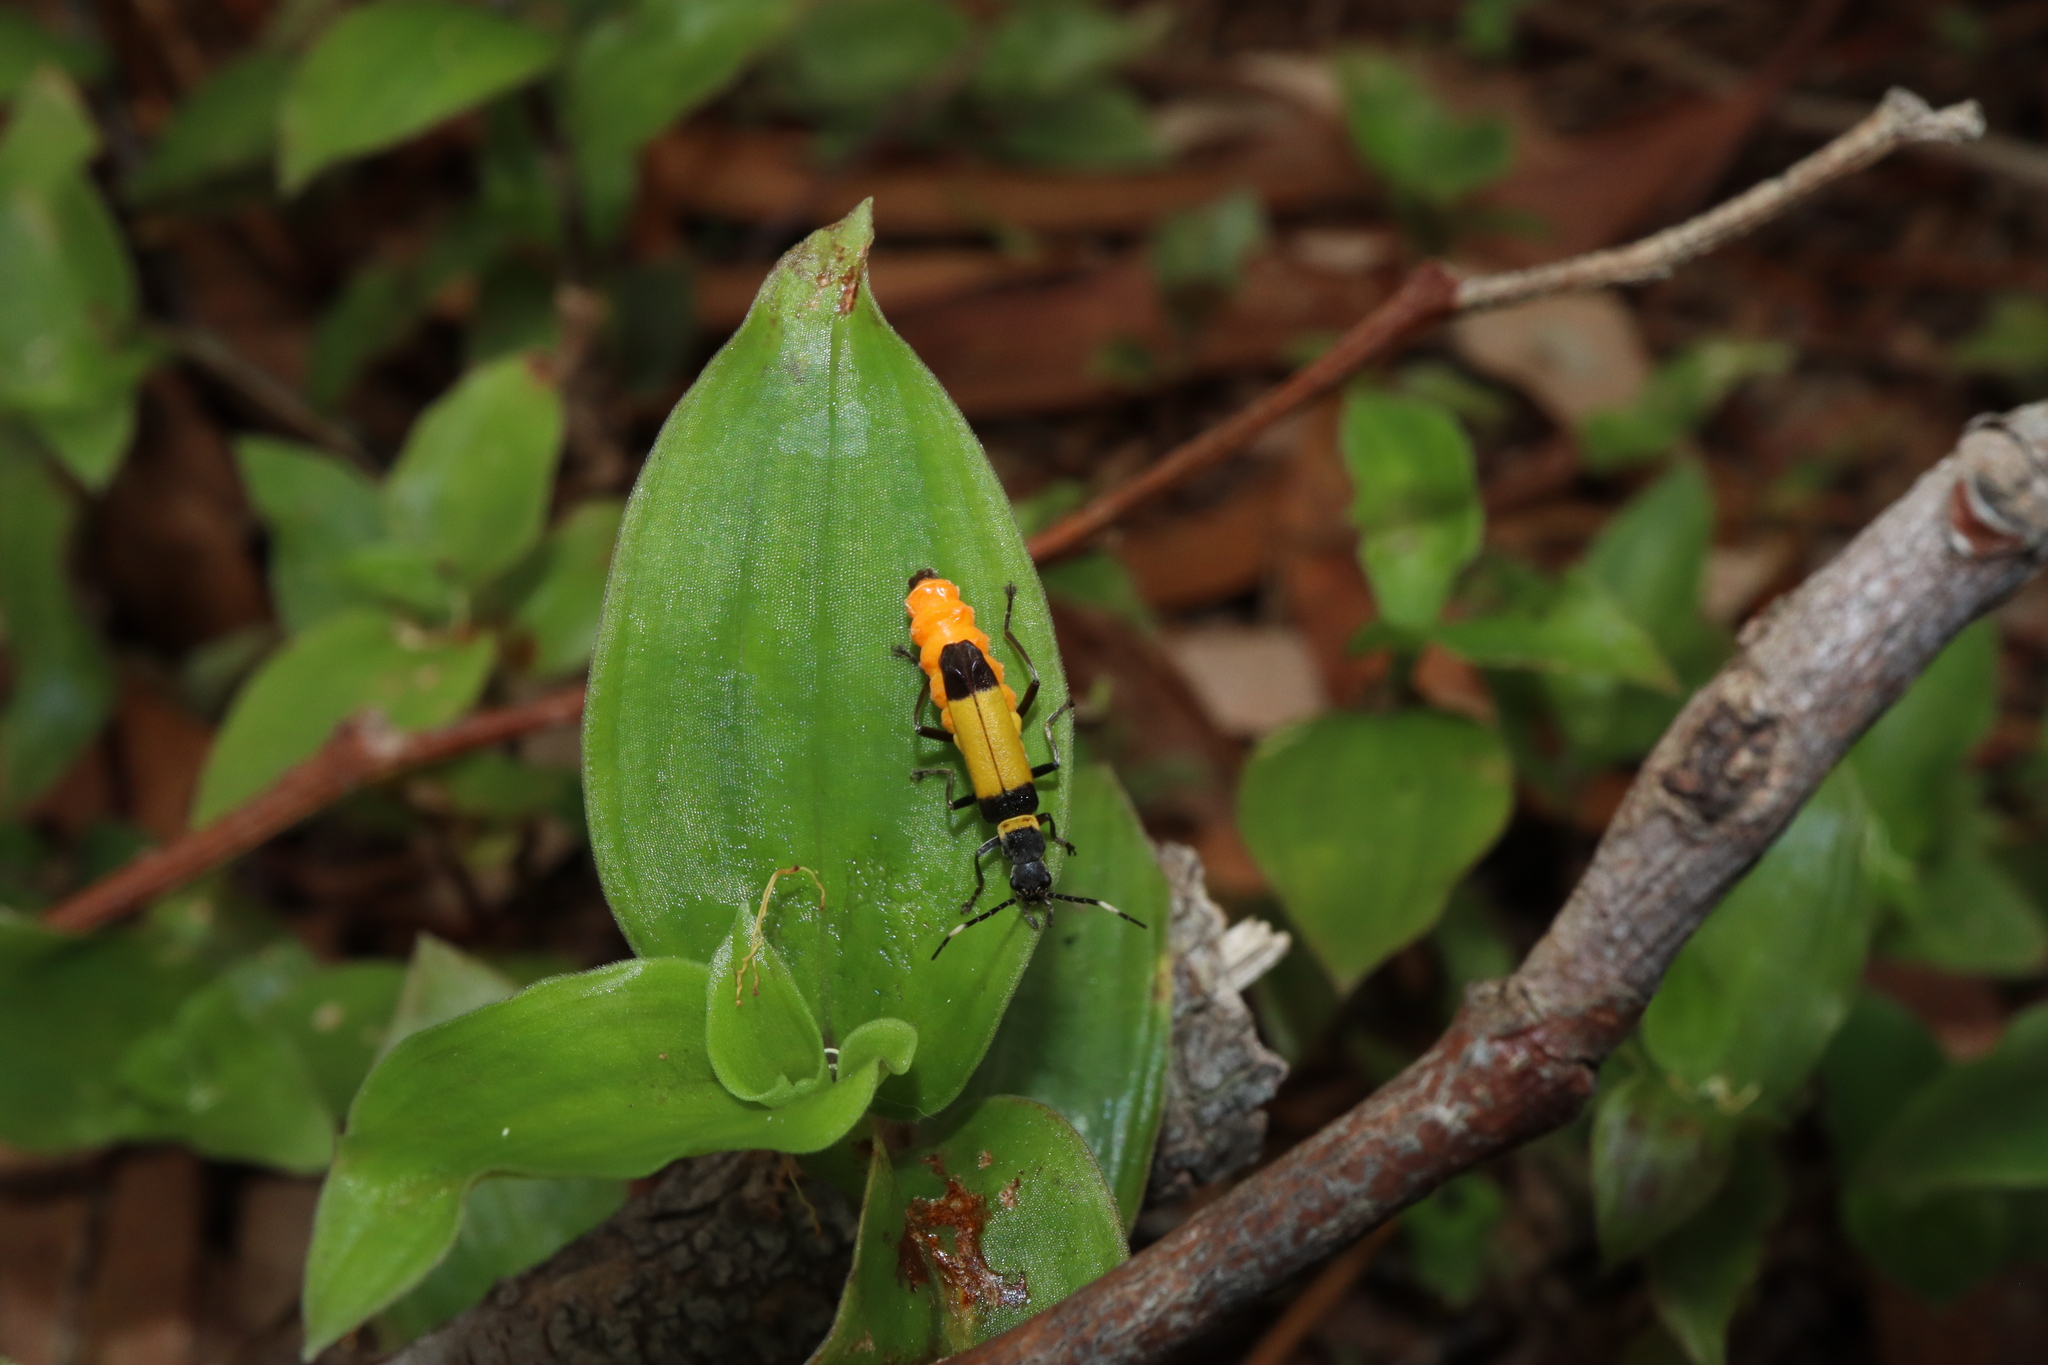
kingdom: Animalia
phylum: Arthropoda
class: Insecta
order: Coleoptera
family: Cantharidae
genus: Chauliognathus
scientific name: Chauliognathus
